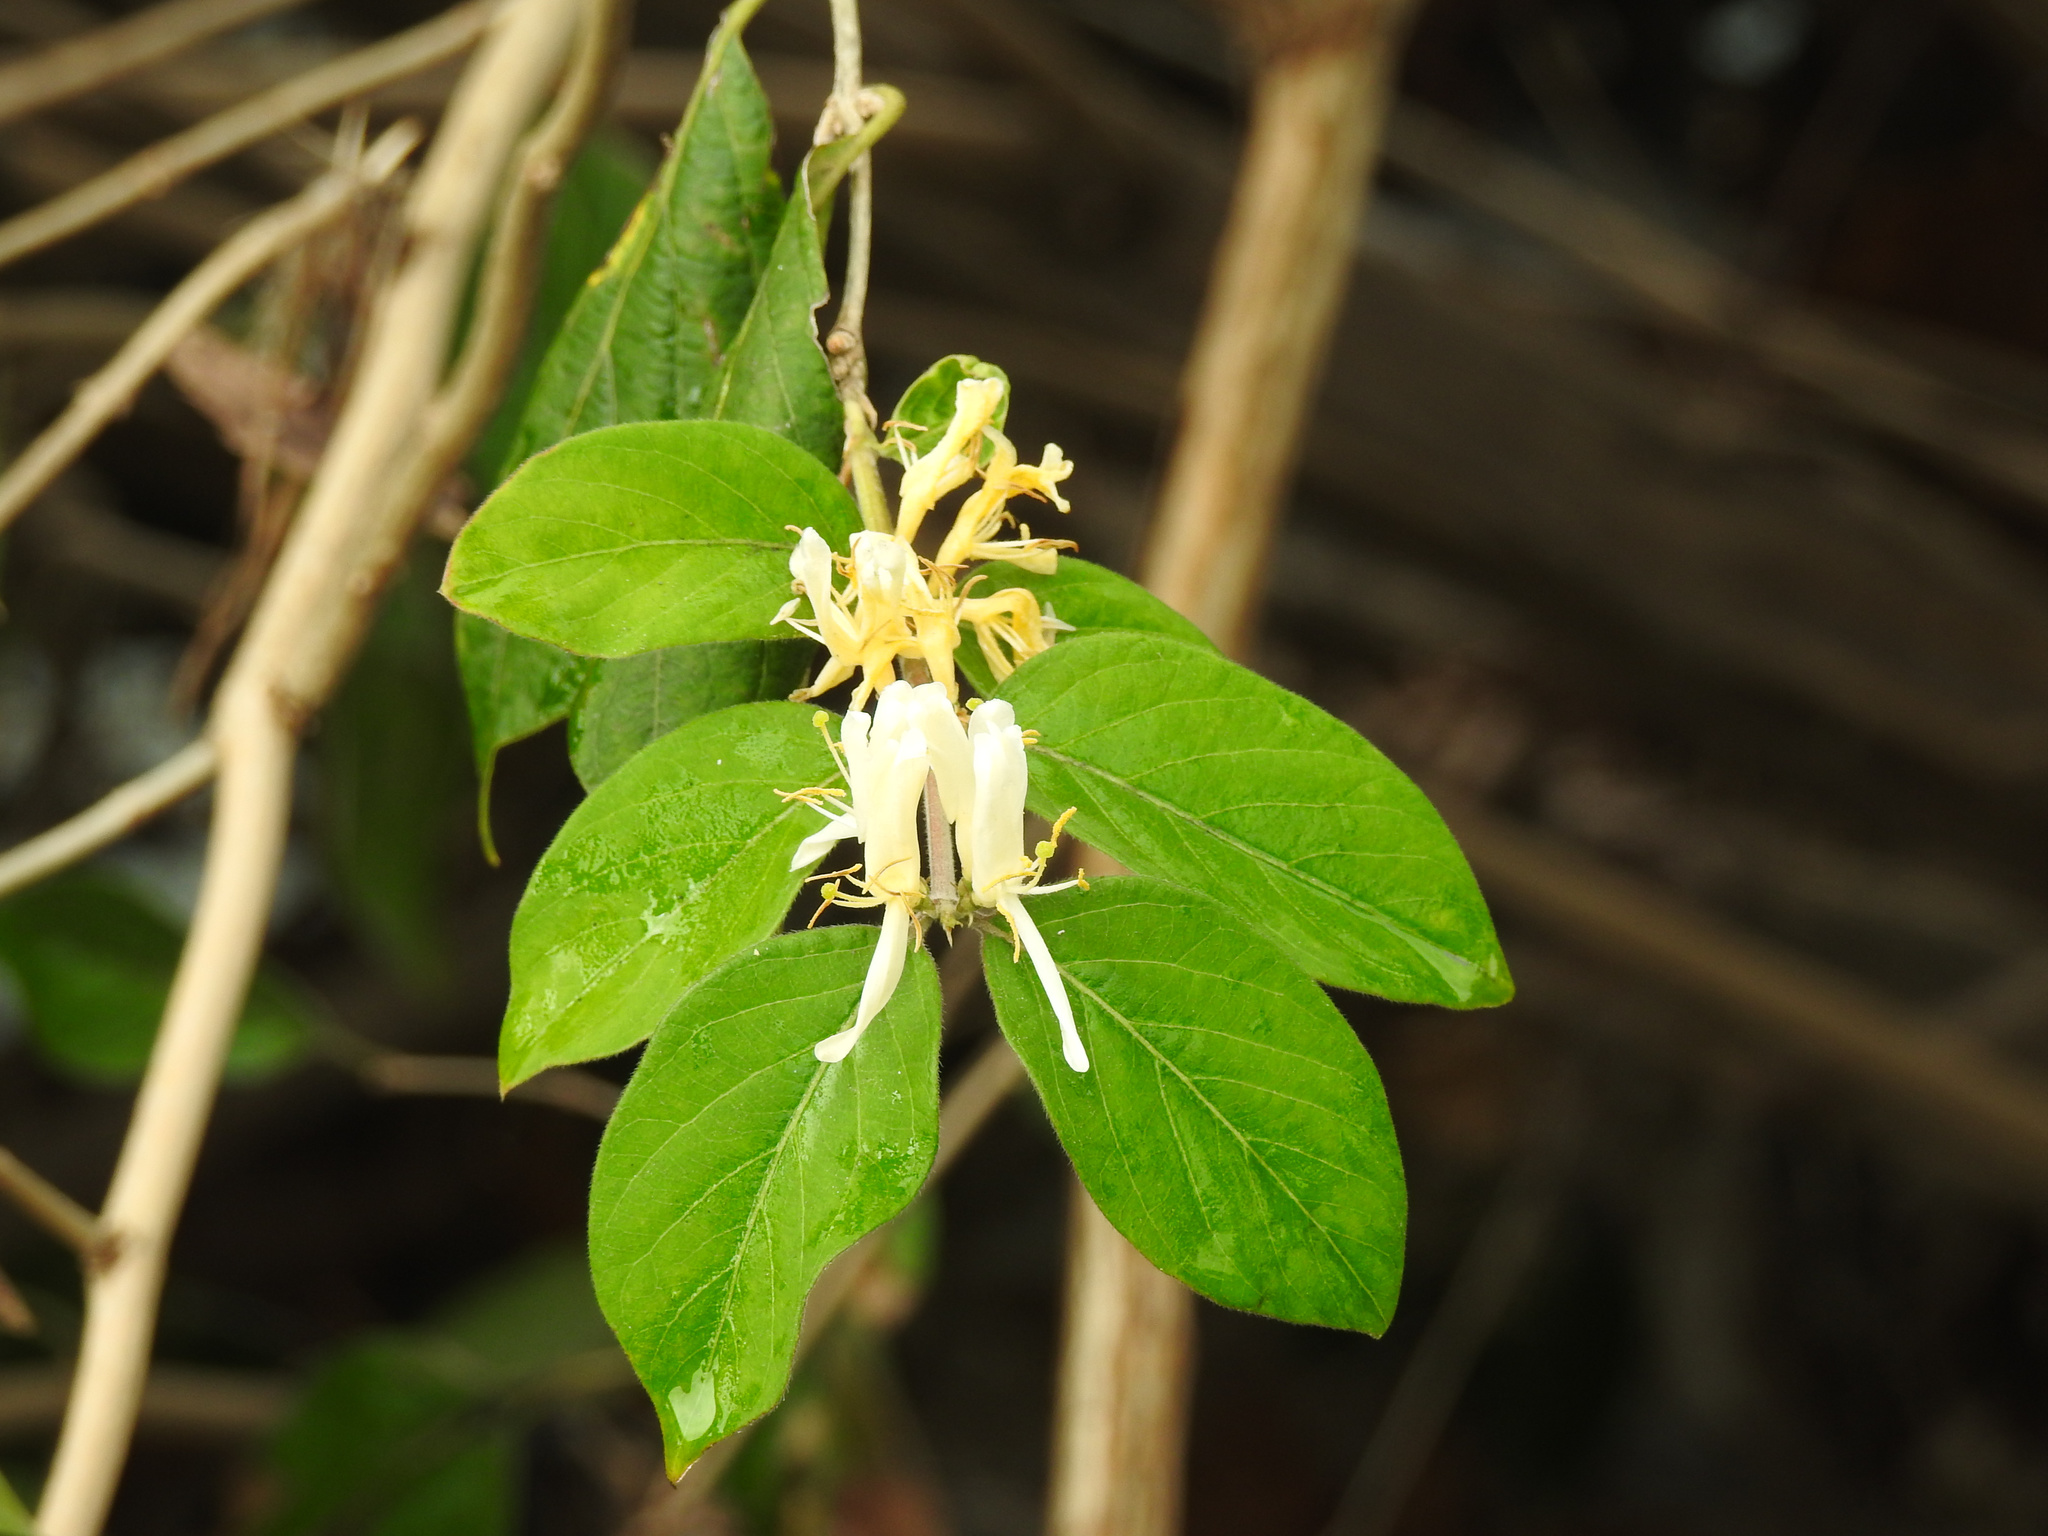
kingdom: Plantae
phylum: Tracheophyta
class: Magnoliopsida
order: Dipsacales
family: Caprifoliaceae
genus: Lonicera
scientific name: Lonicera maackii
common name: Amur honeysuckle
